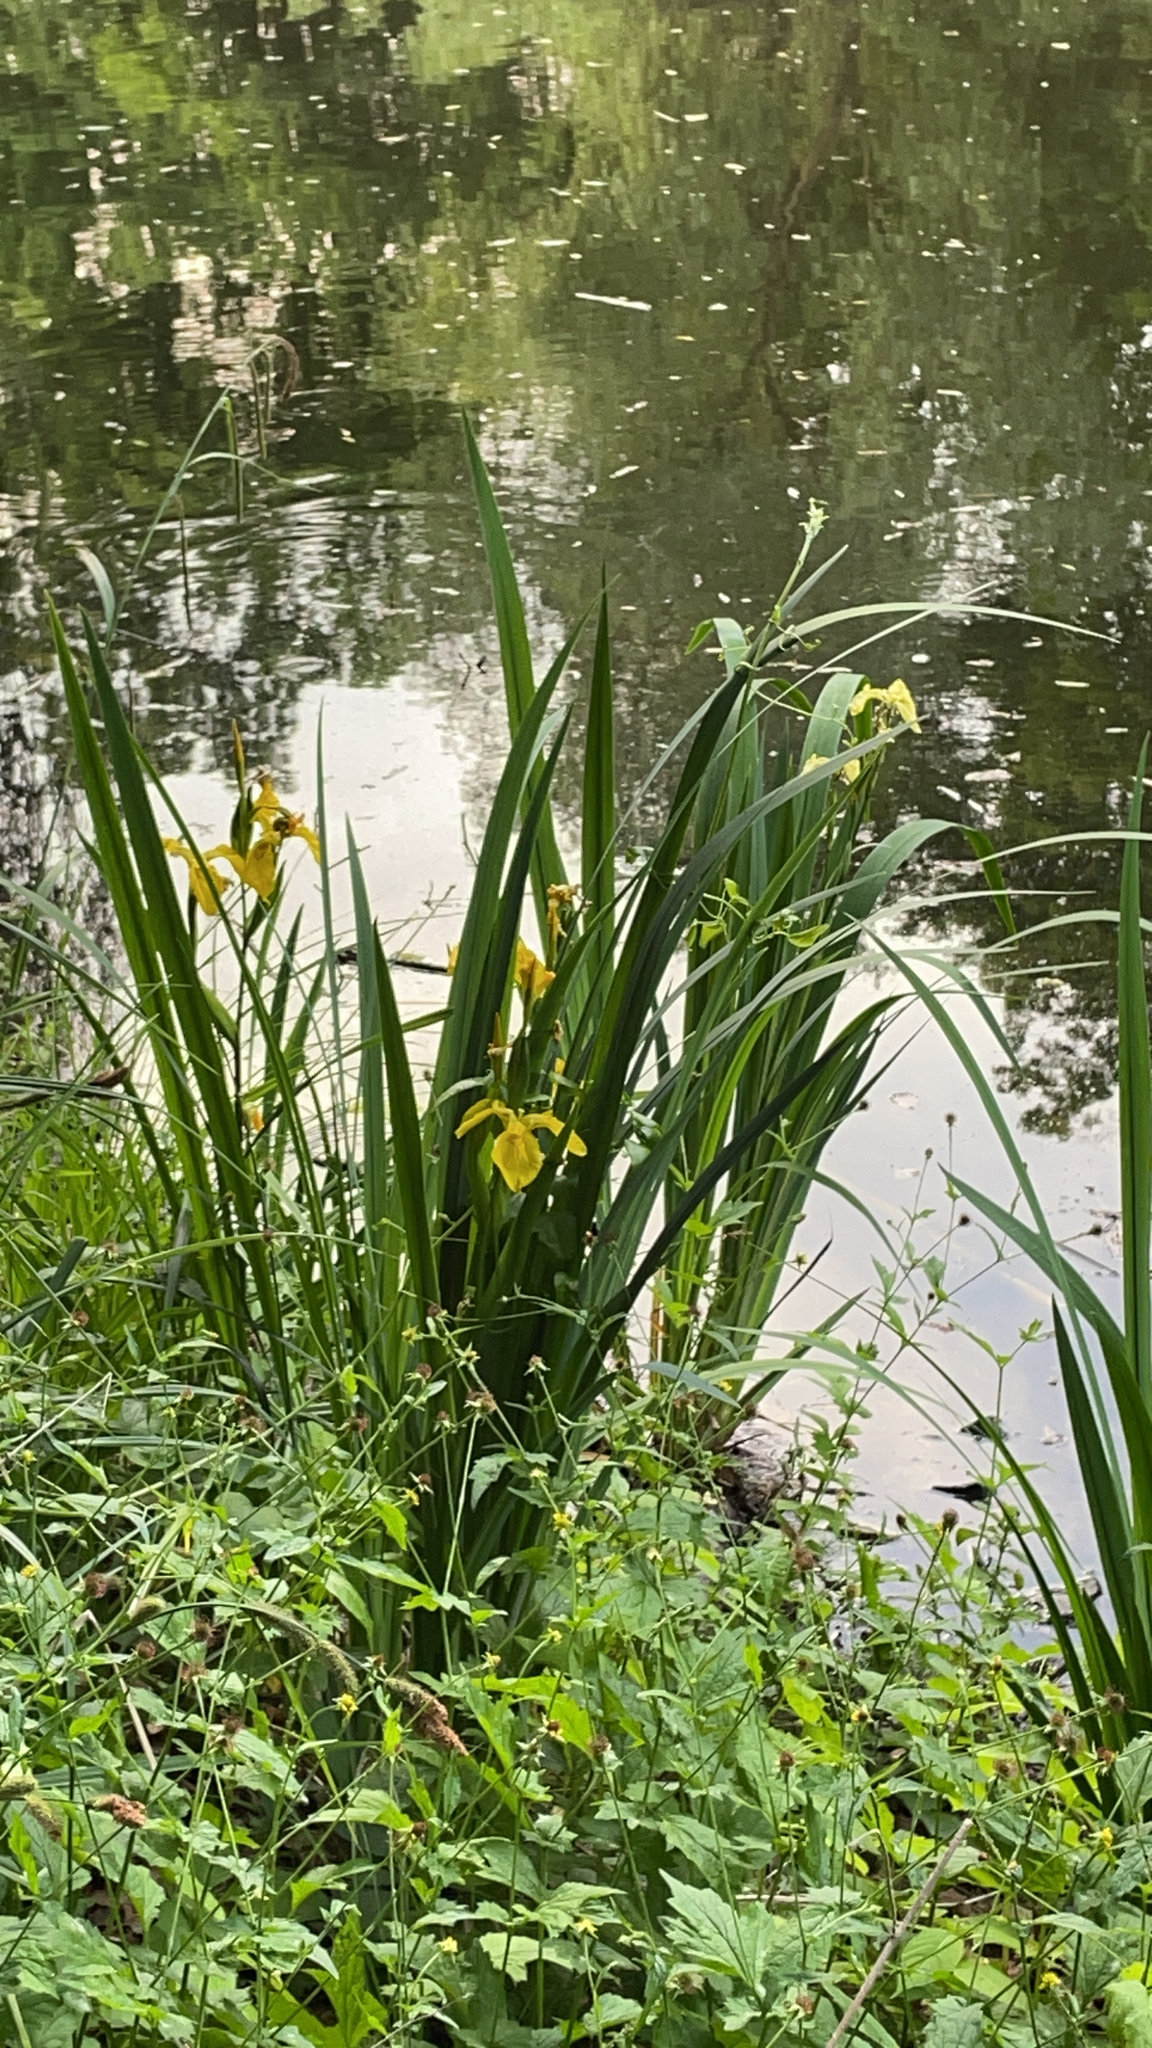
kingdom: Plantae
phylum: Tracheophyta
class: Liliopsida
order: Asparagales
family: Iridaceae
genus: Iris
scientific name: Iris pseudacorus
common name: Yellow flag
